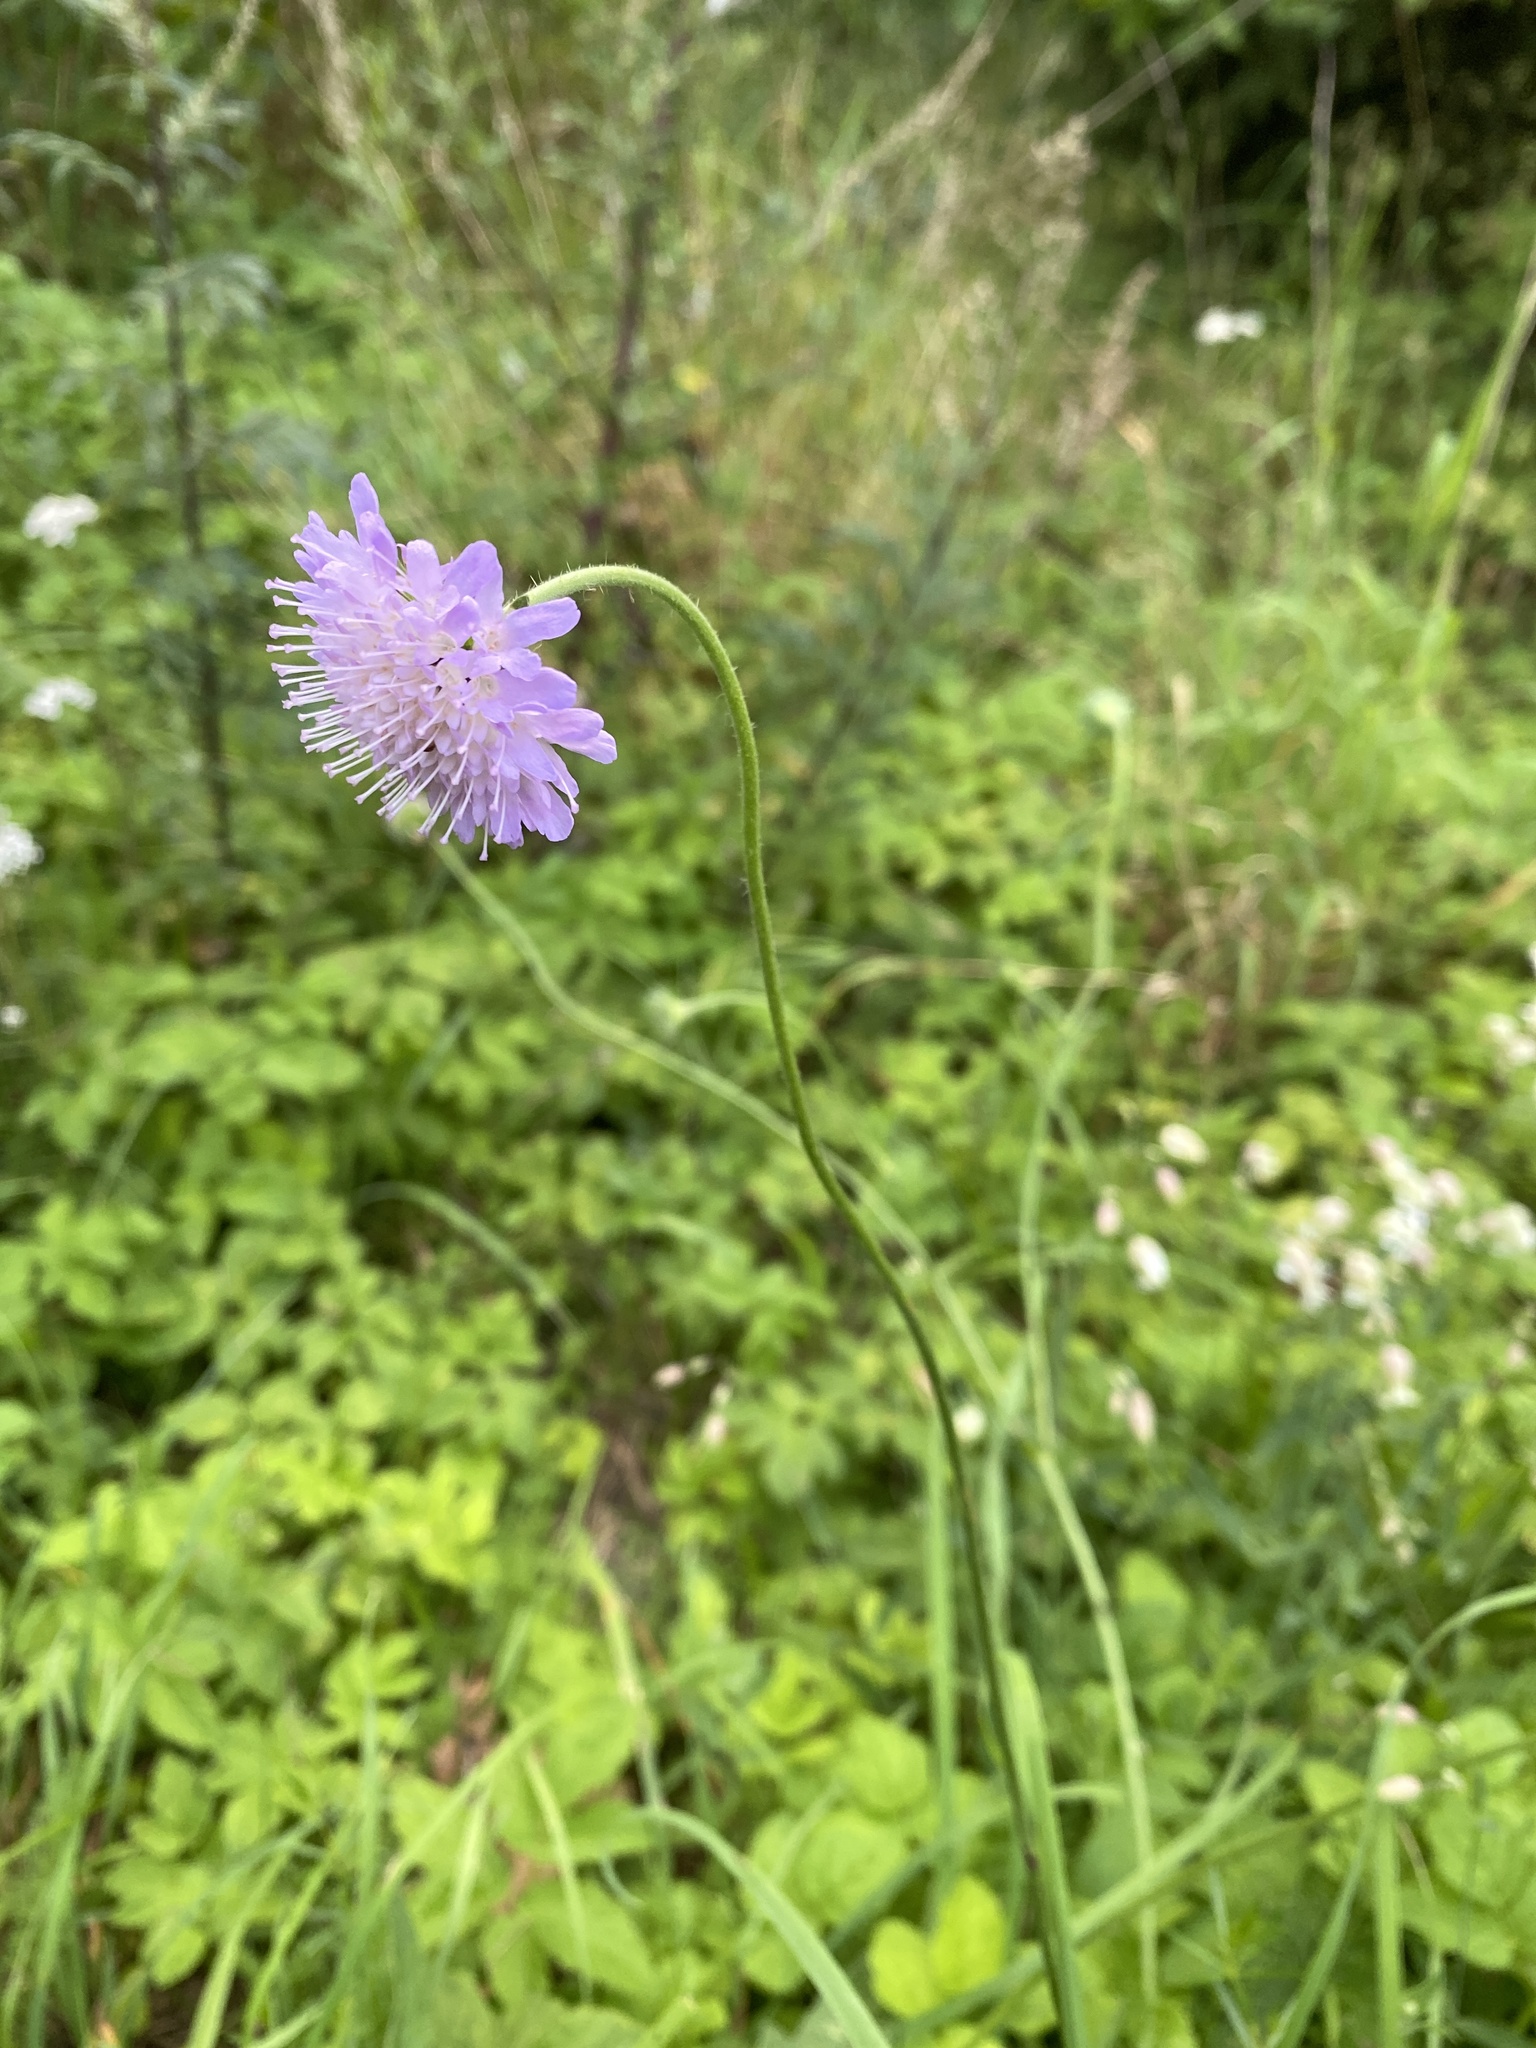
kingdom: Plantae
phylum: Tracheophyta
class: Magnoliopsida
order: Dipsacales
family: Caprifoliaceae
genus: Knautia
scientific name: Knautia arvensis
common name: Field scabiosa
